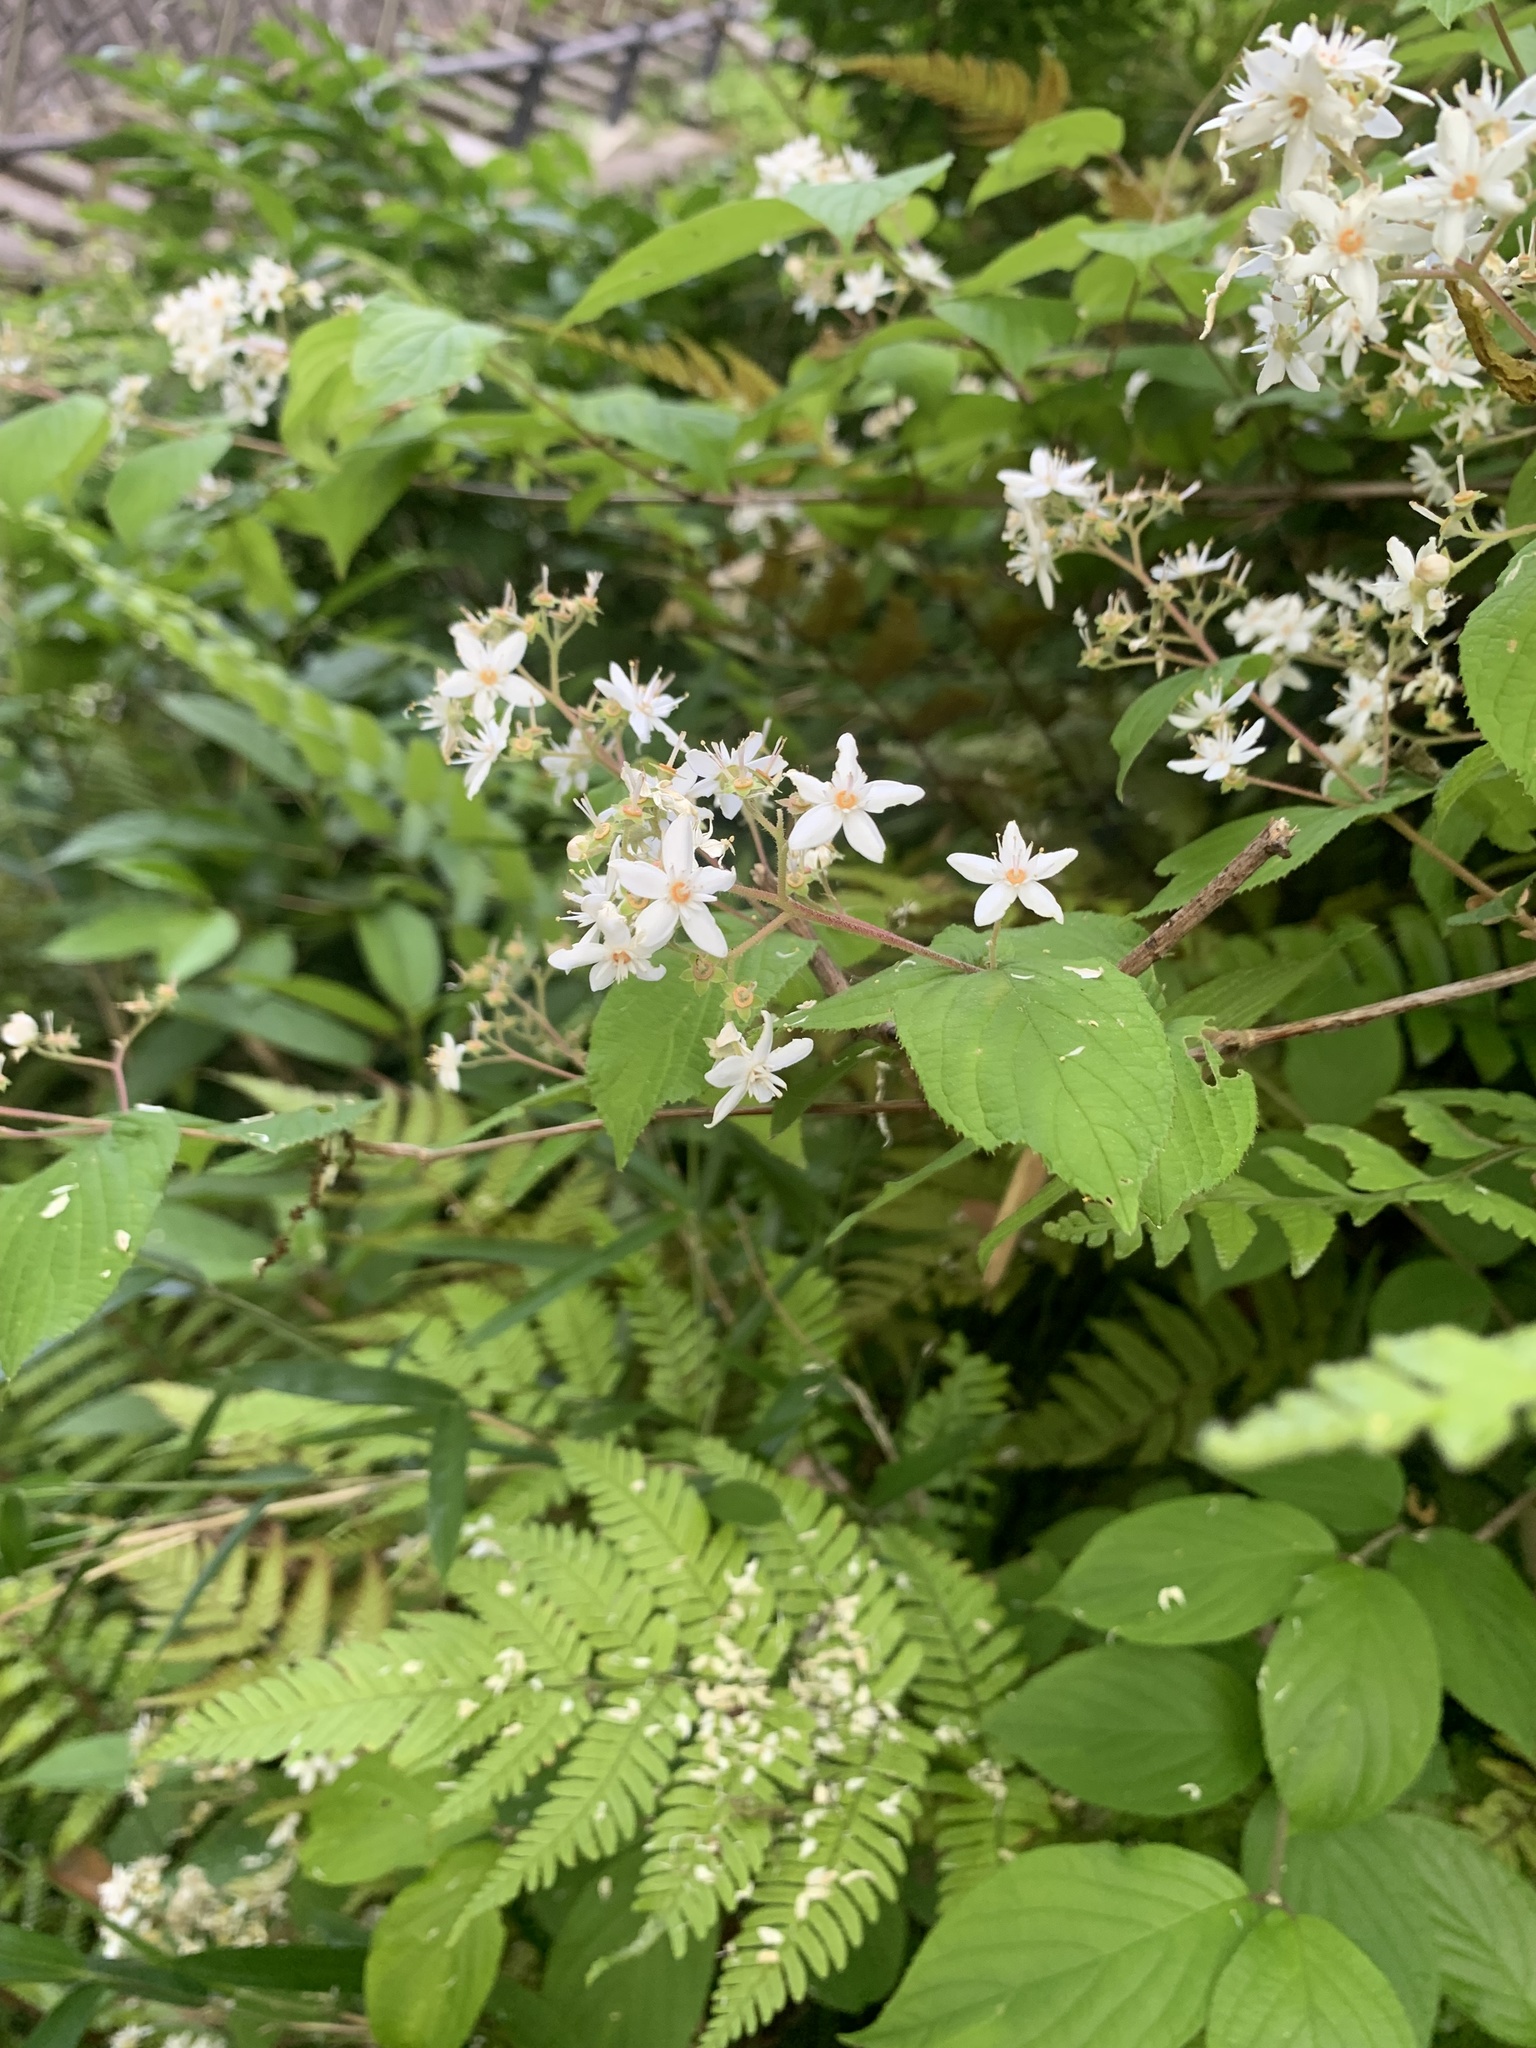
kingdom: Plantae
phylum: Tracheophyta
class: Magnoliopsida
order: Cornales
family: Hydrangeaceae
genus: Deutzia
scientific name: Deutzia scabra
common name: Deutzia
